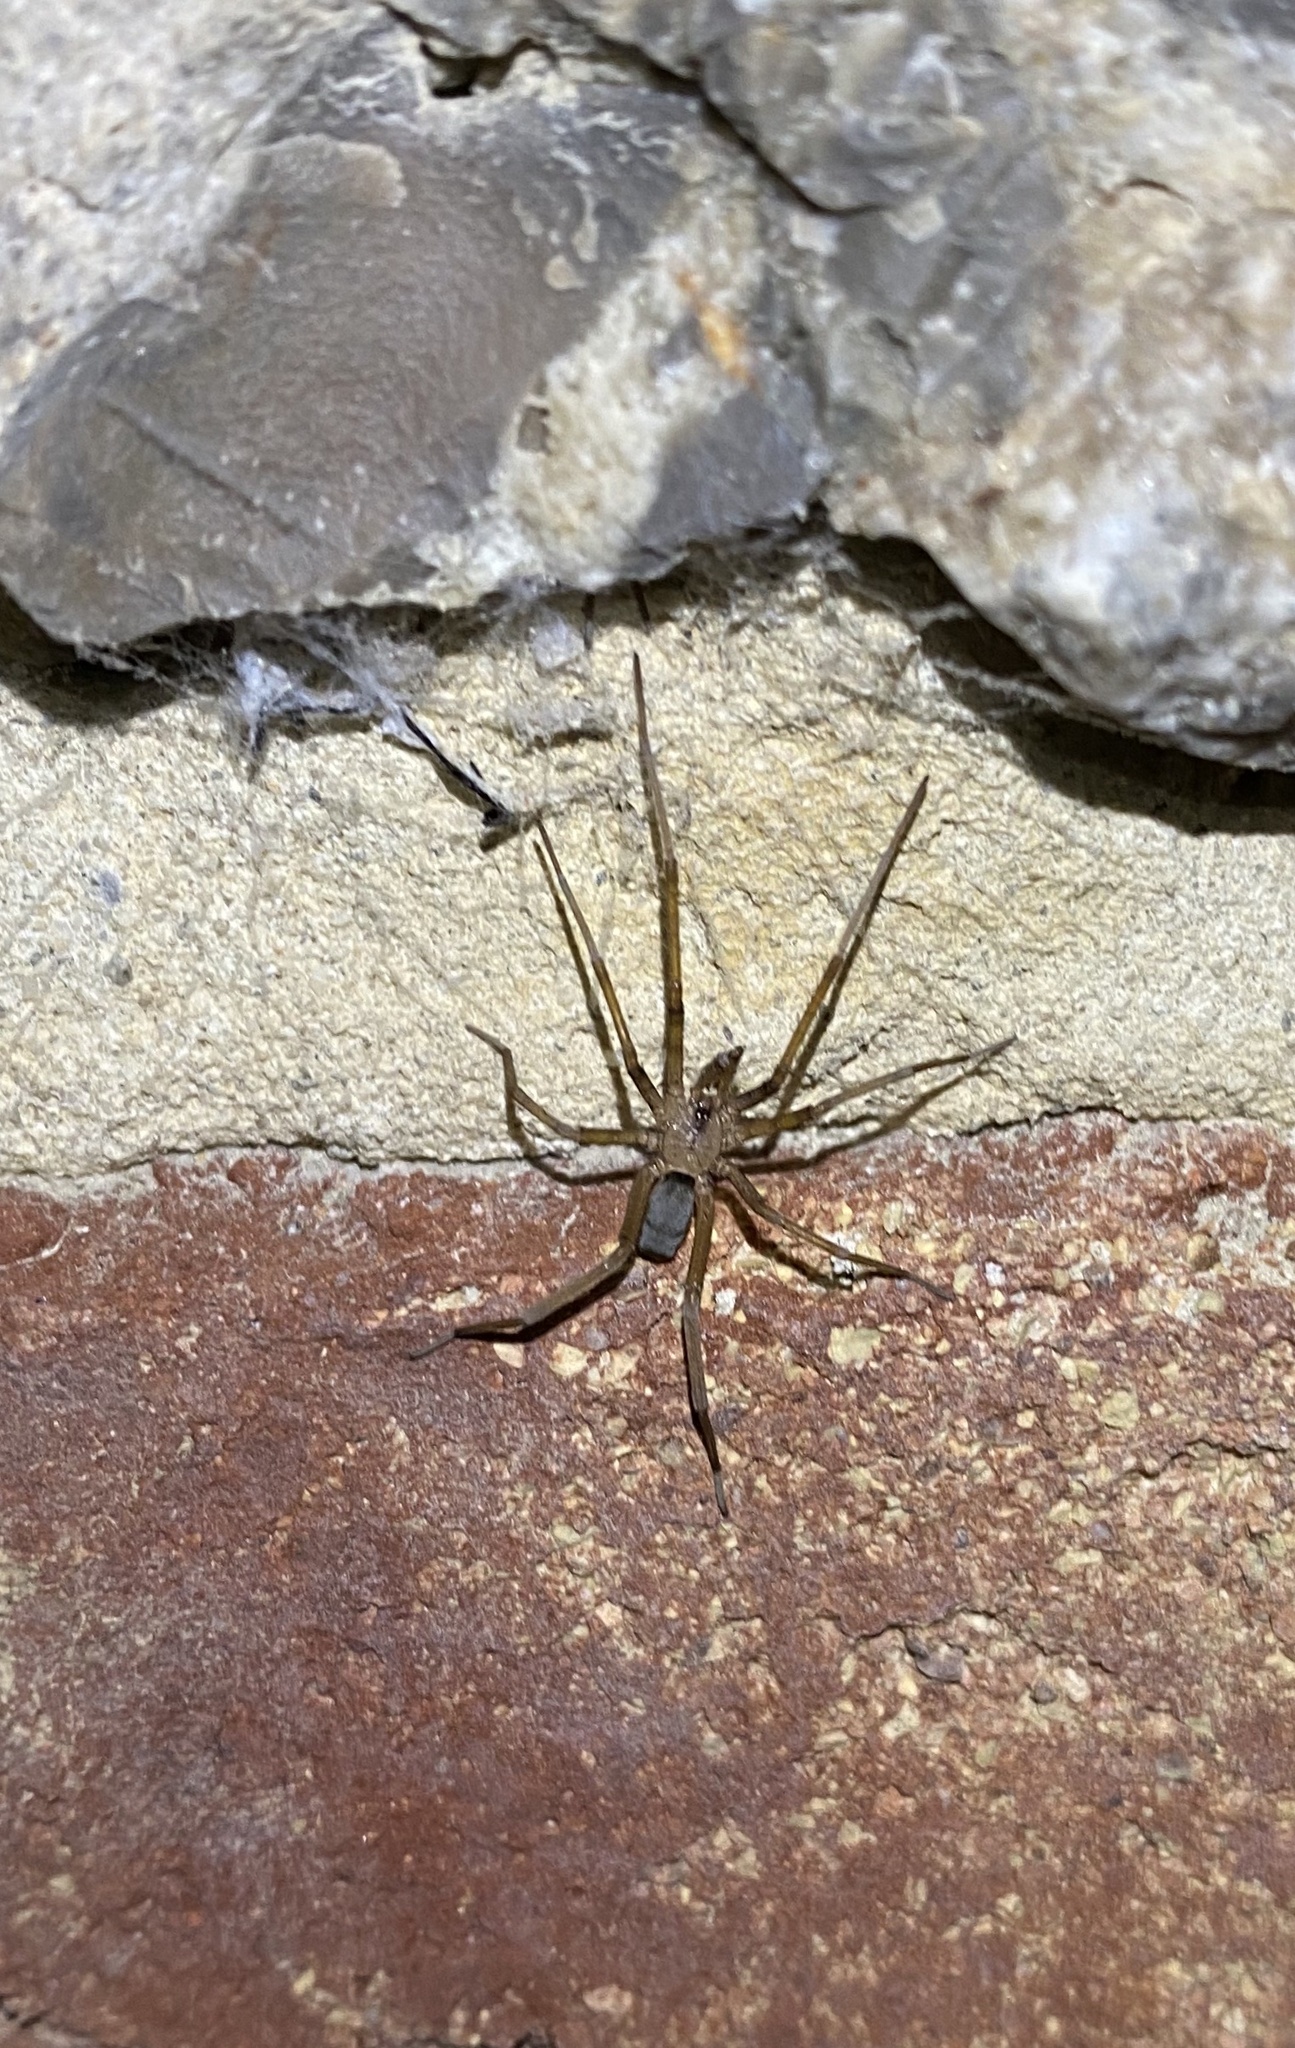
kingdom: Animalia
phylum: Arthropoda
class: Arachnida
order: Araneae
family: Filistatidae
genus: Filistata
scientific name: Filistata insidiatrix
